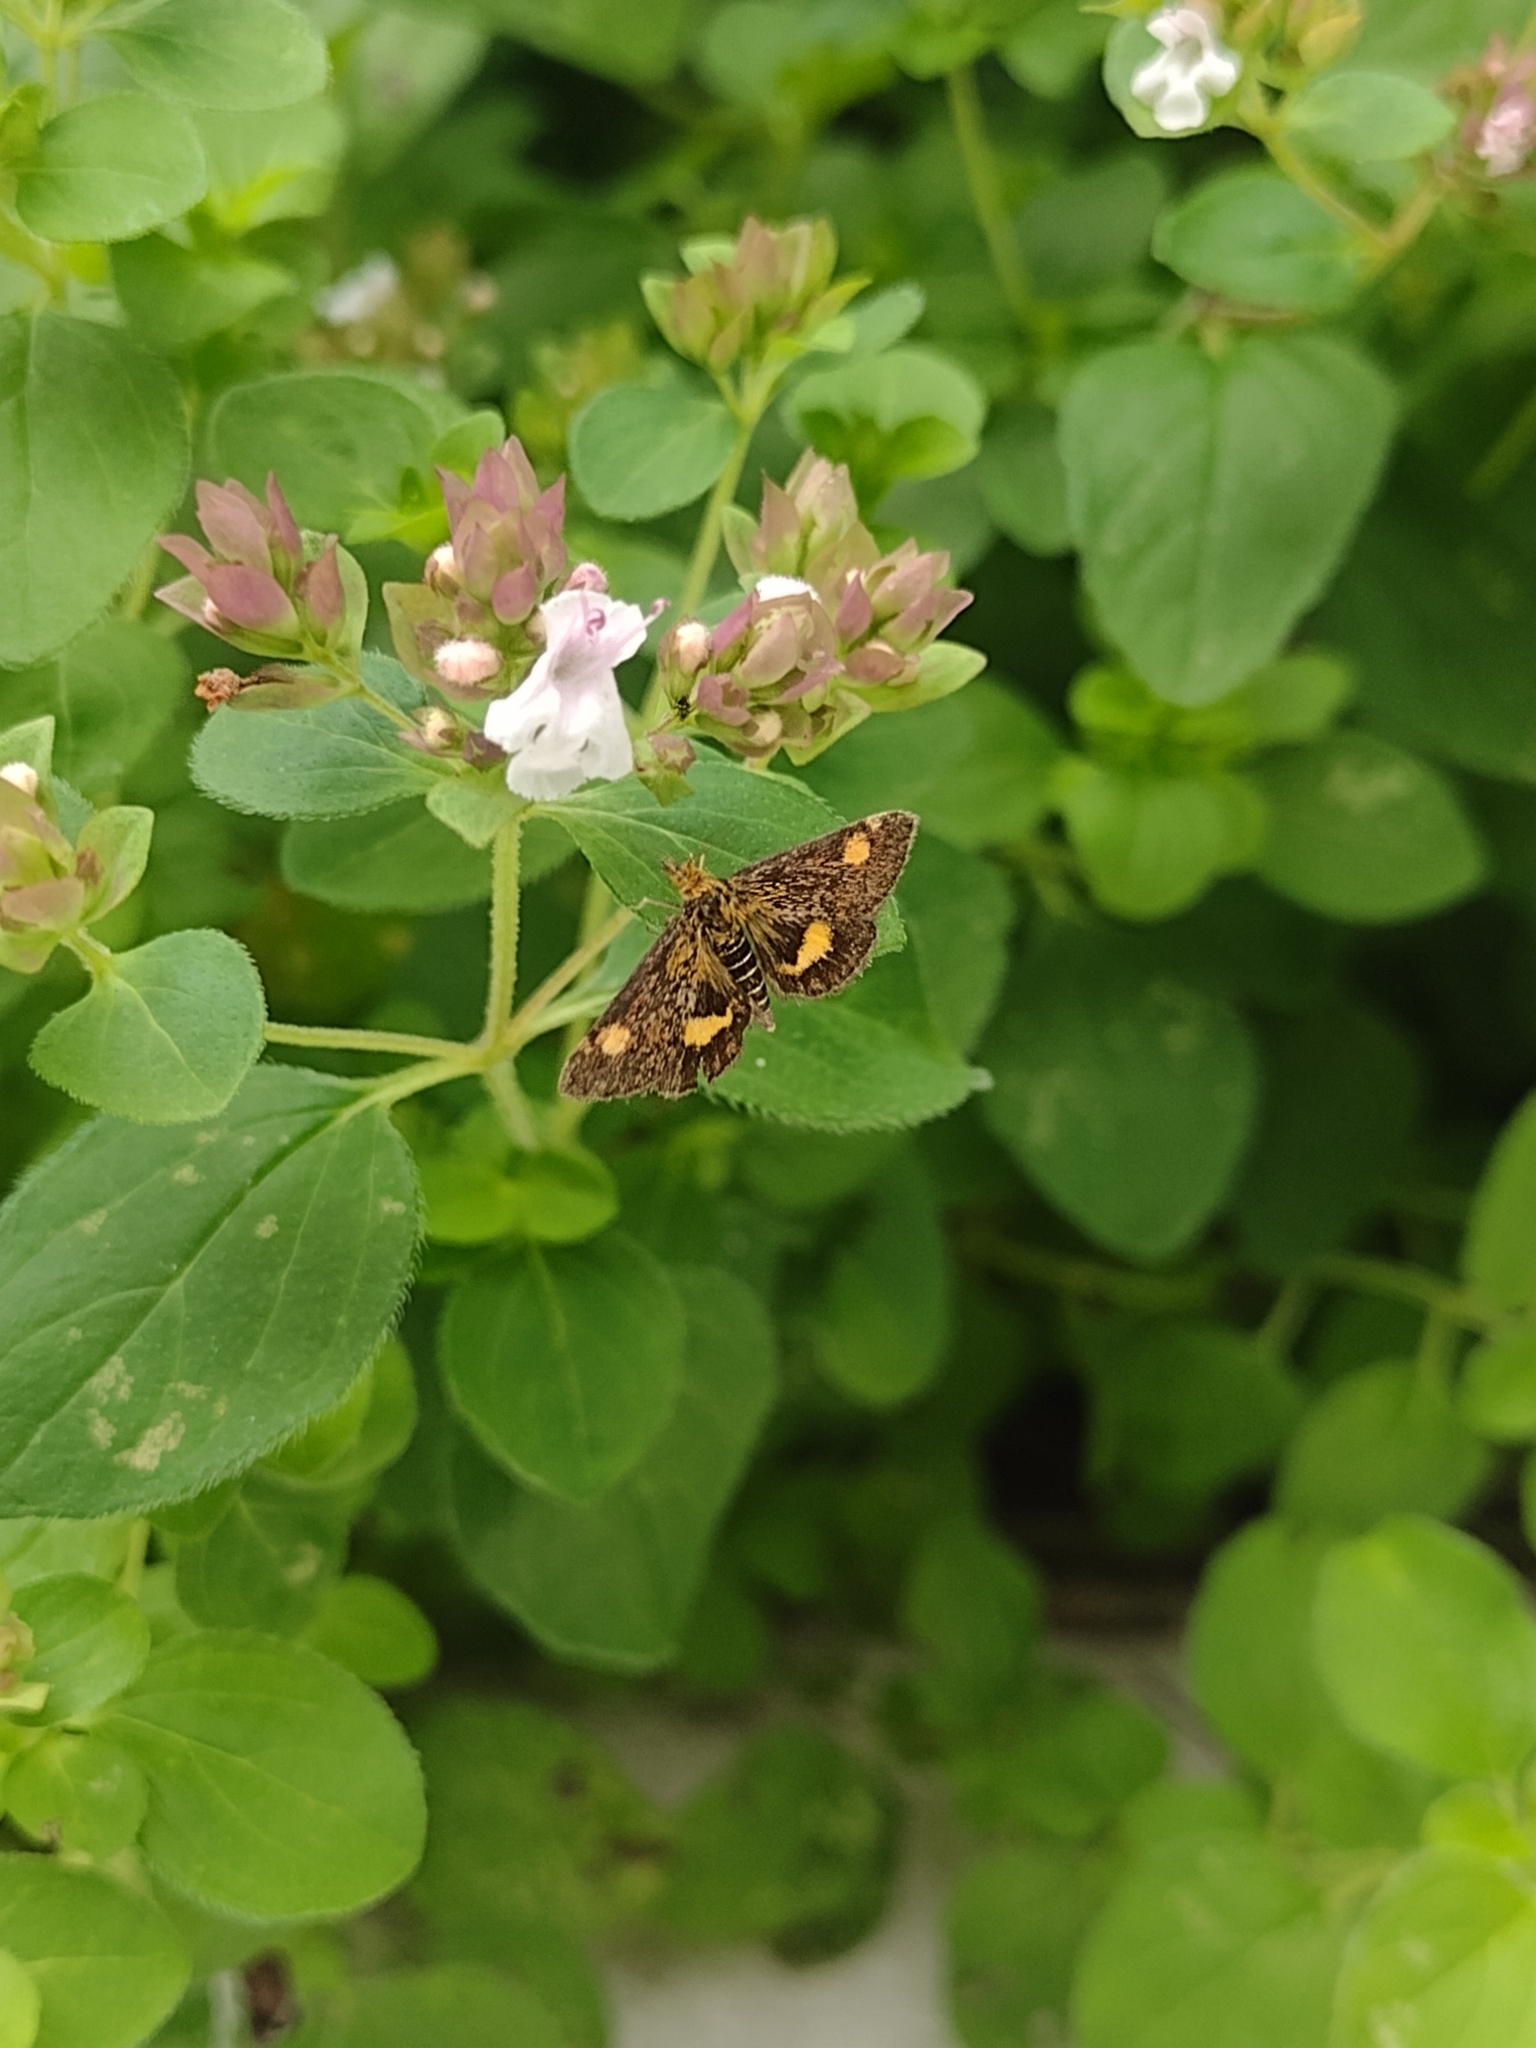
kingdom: Animalia
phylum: Arthropoda
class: Insecta
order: Lepidoptera
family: Crambidae
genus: Pyrausta
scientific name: Pyrausta aurata
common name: Small purple & gold
